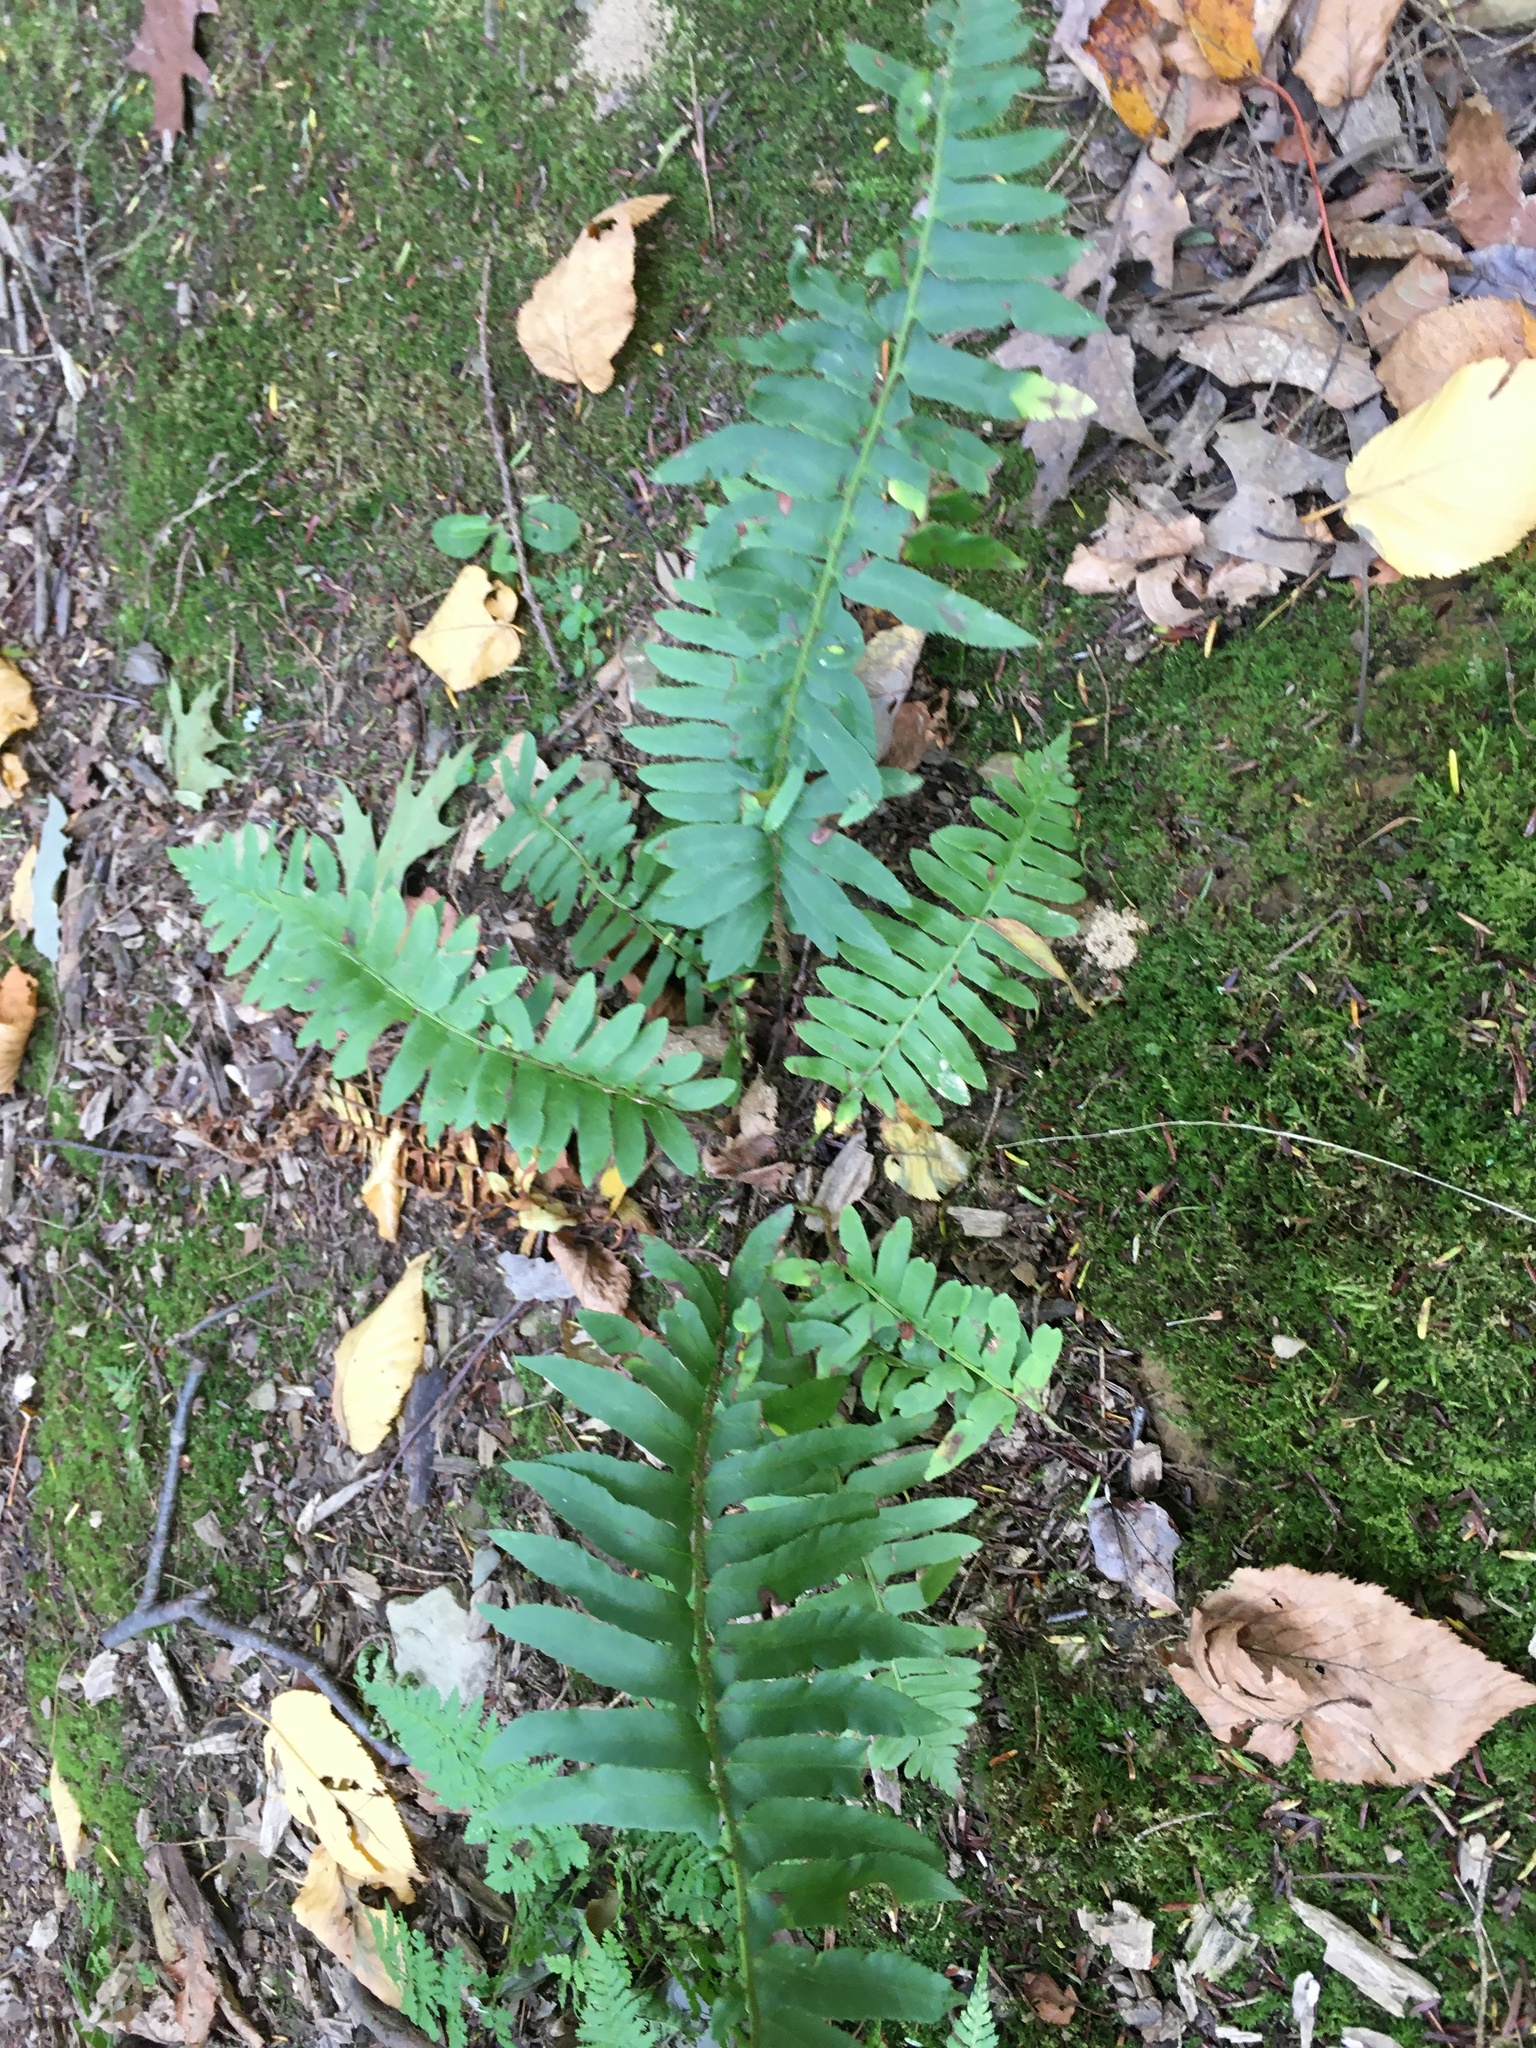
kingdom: Plantae
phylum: Tracheophyta
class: Polypodiopsida
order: Polypodiales
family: Dryopteridaceae
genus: Polystichum
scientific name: Polystichum acrostichoides
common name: Christmas fern
